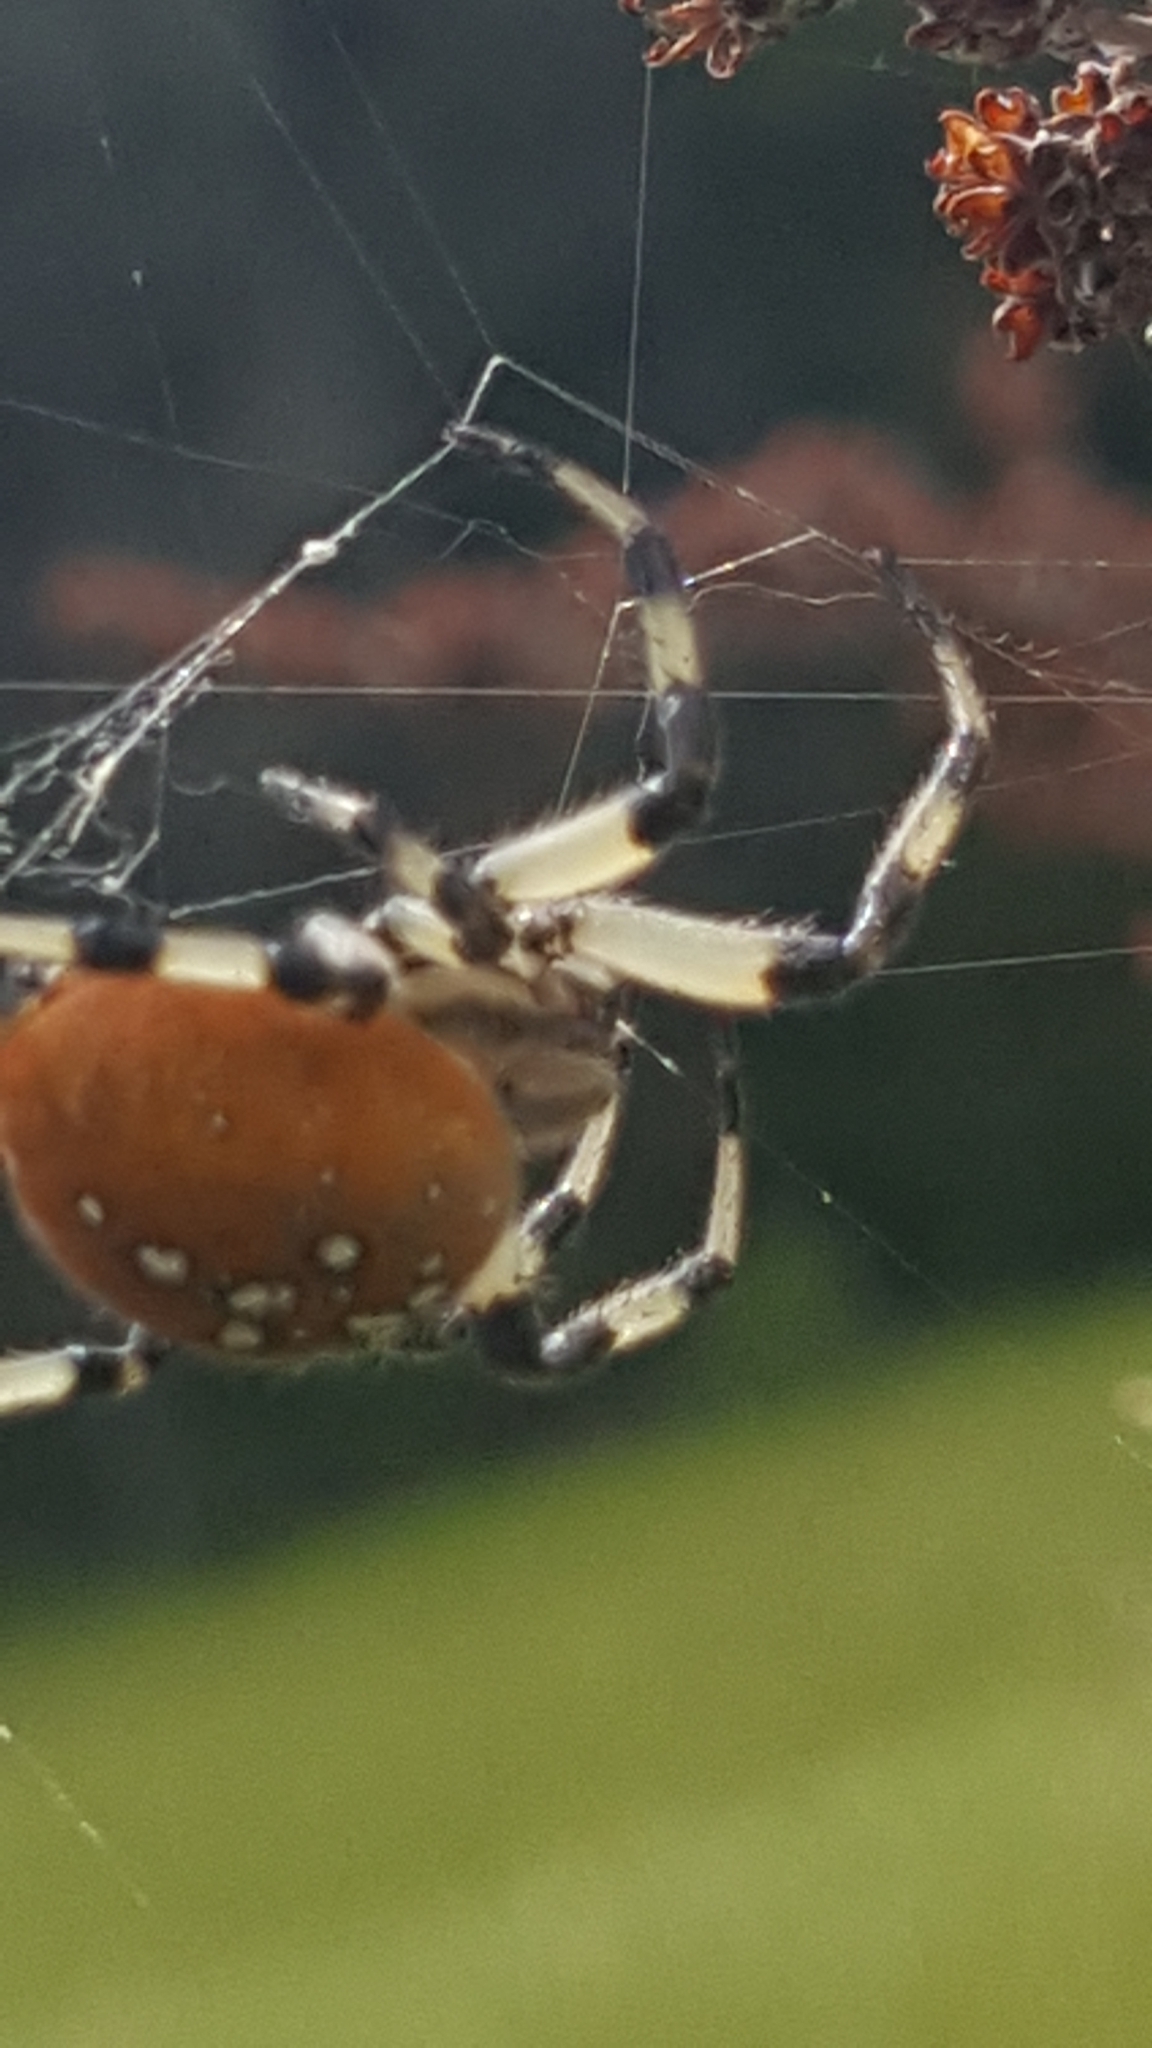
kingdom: Animalia
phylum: Arthropoda
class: Arachnida
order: Araneae
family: Araneidae
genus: Araneus
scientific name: Araneus trifolium
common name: Shamrock orbweaver
